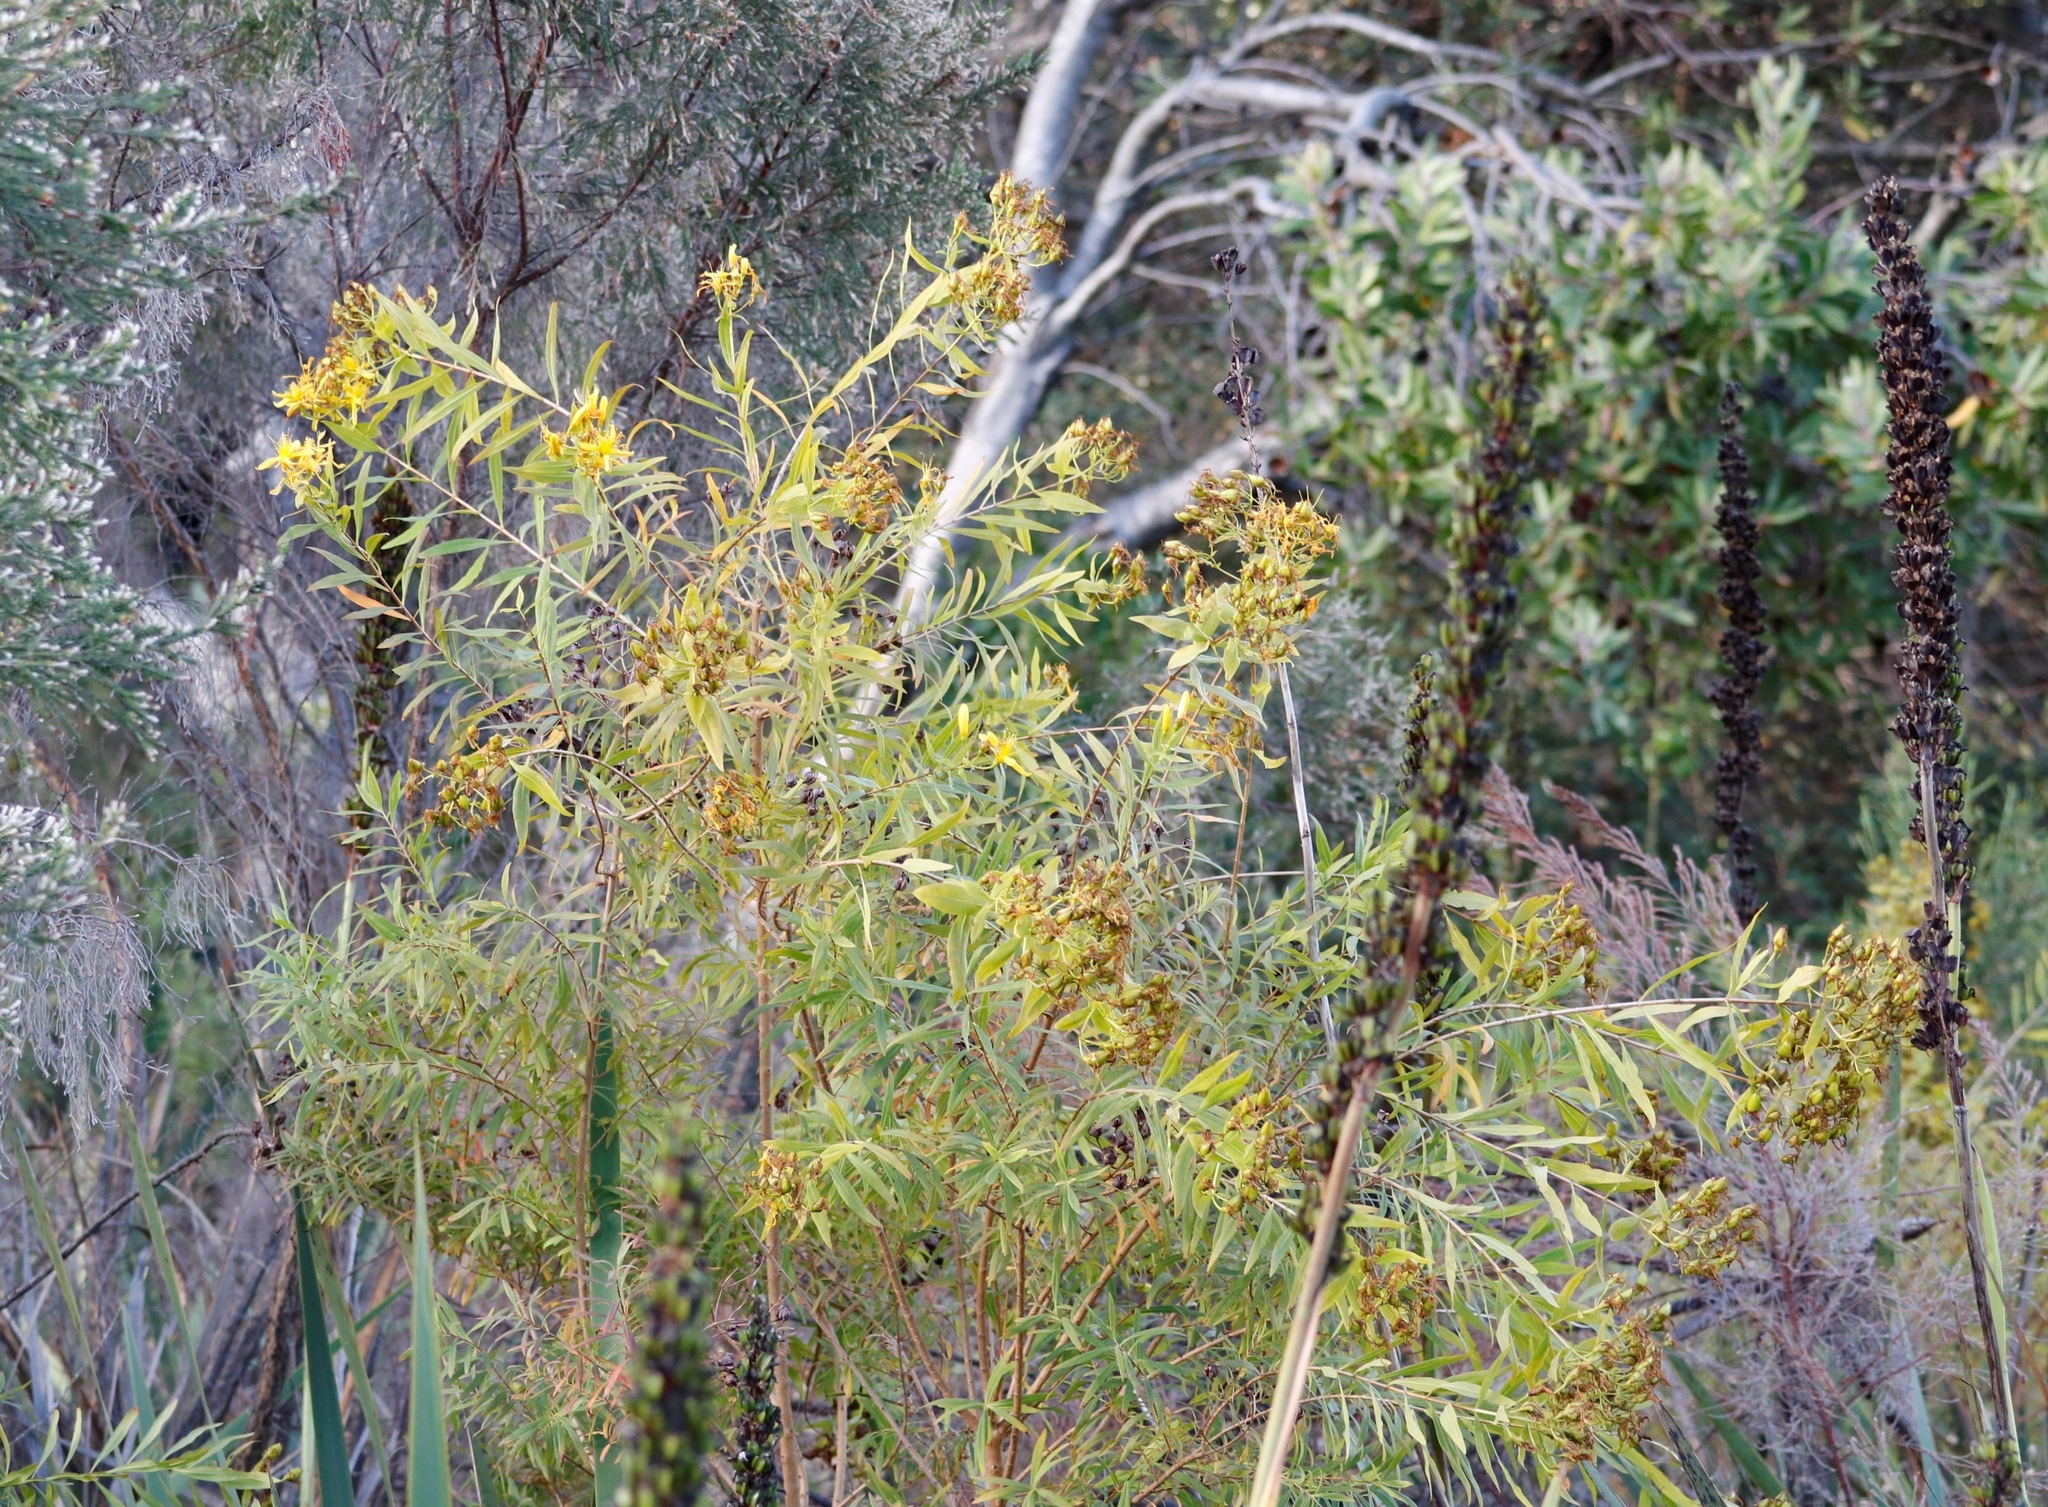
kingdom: Plantae
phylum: Tracheophyta
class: Magnoliopsida
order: Malpighiales
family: Hypericaceae
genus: Hypericum
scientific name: Hypericum canariense
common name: Canary island st. johnswort
